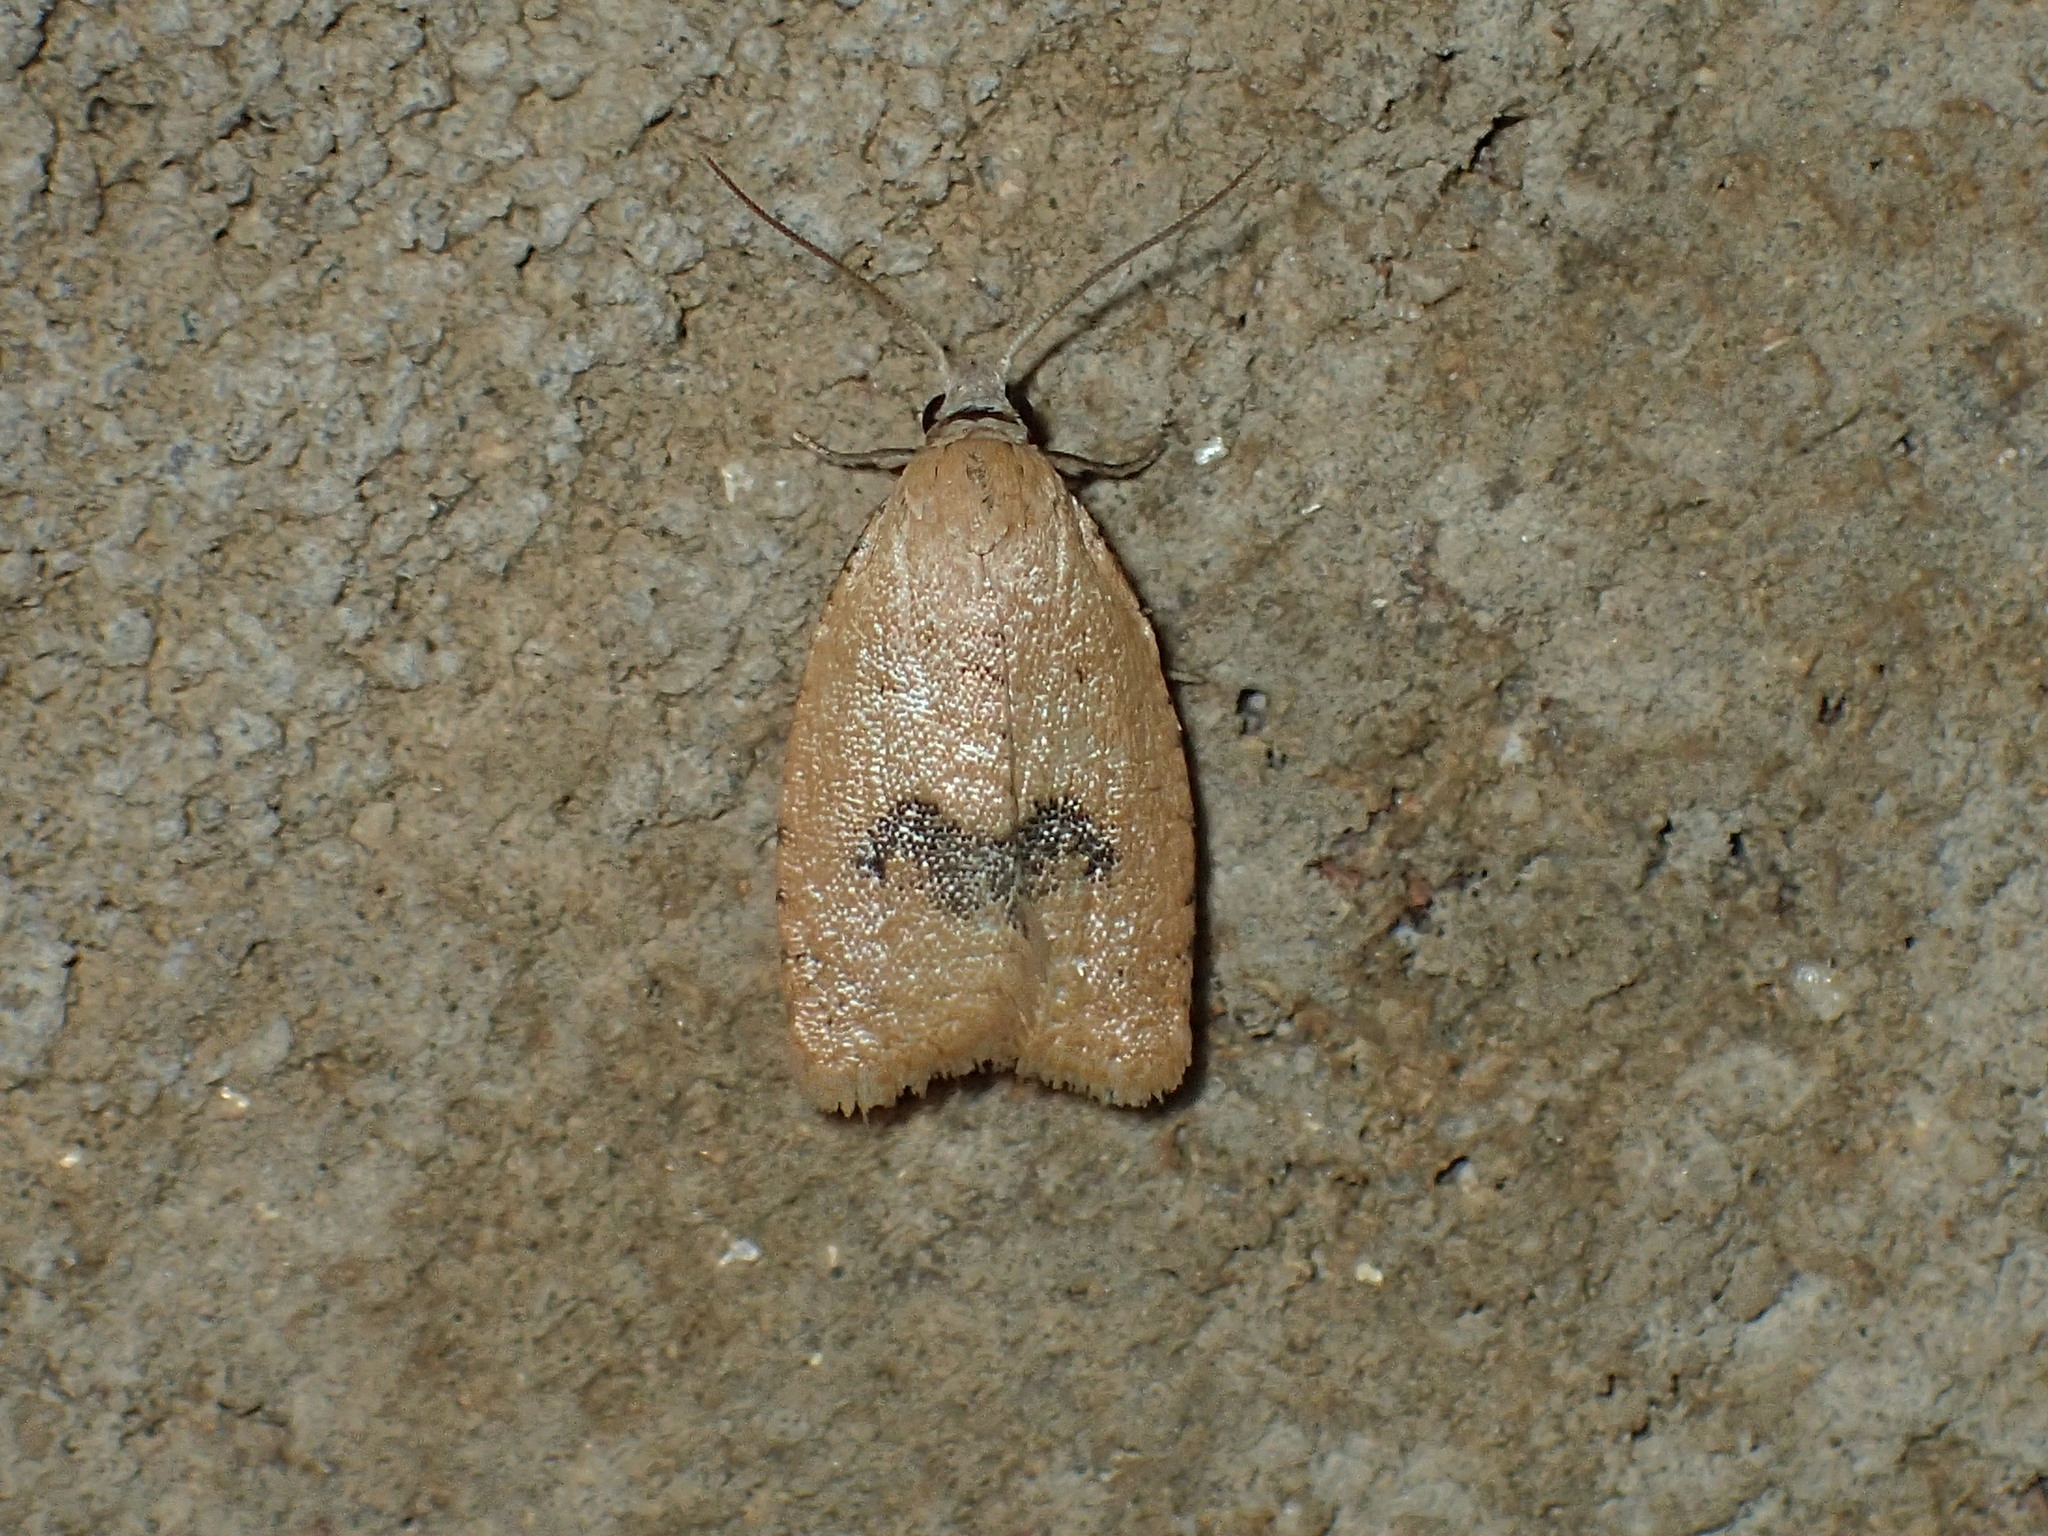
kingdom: Animalia
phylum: Arthropoda
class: Insecta
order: Lepidoptera
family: Tortricidae
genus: Sparganothoides
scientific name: Sparganothoides lentiginosana
